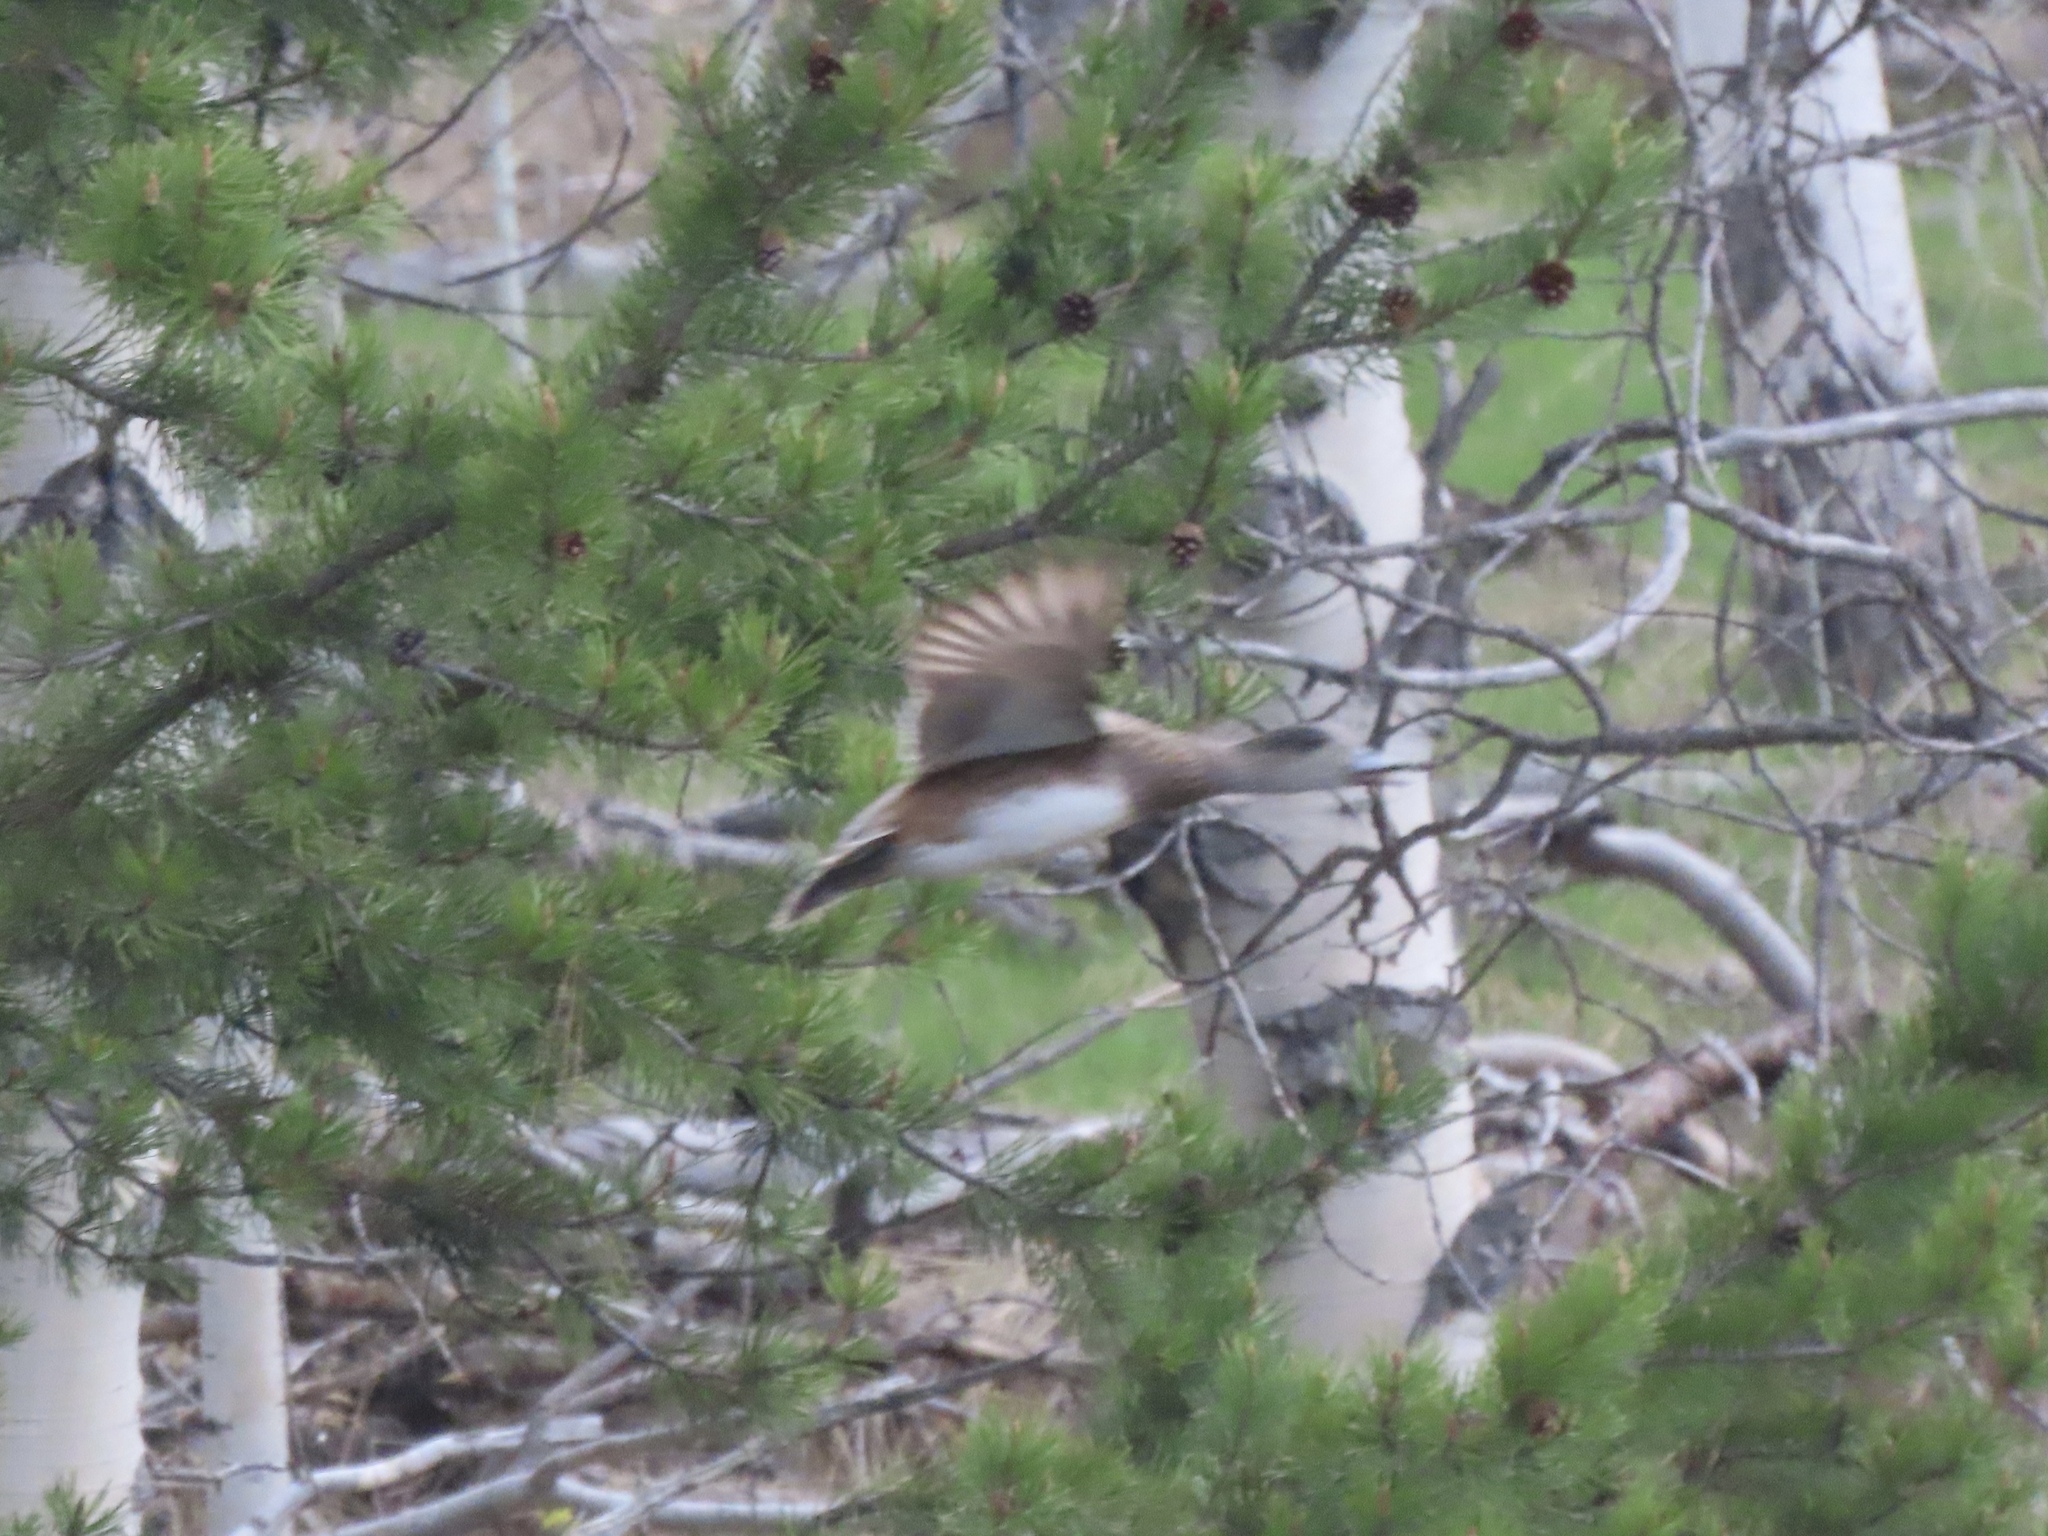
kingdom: Animalia
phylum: Chordata
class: Aves
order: Anseriformes
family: Anatidae
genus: Mareca
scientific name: Mareca americana
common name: American wigeon
